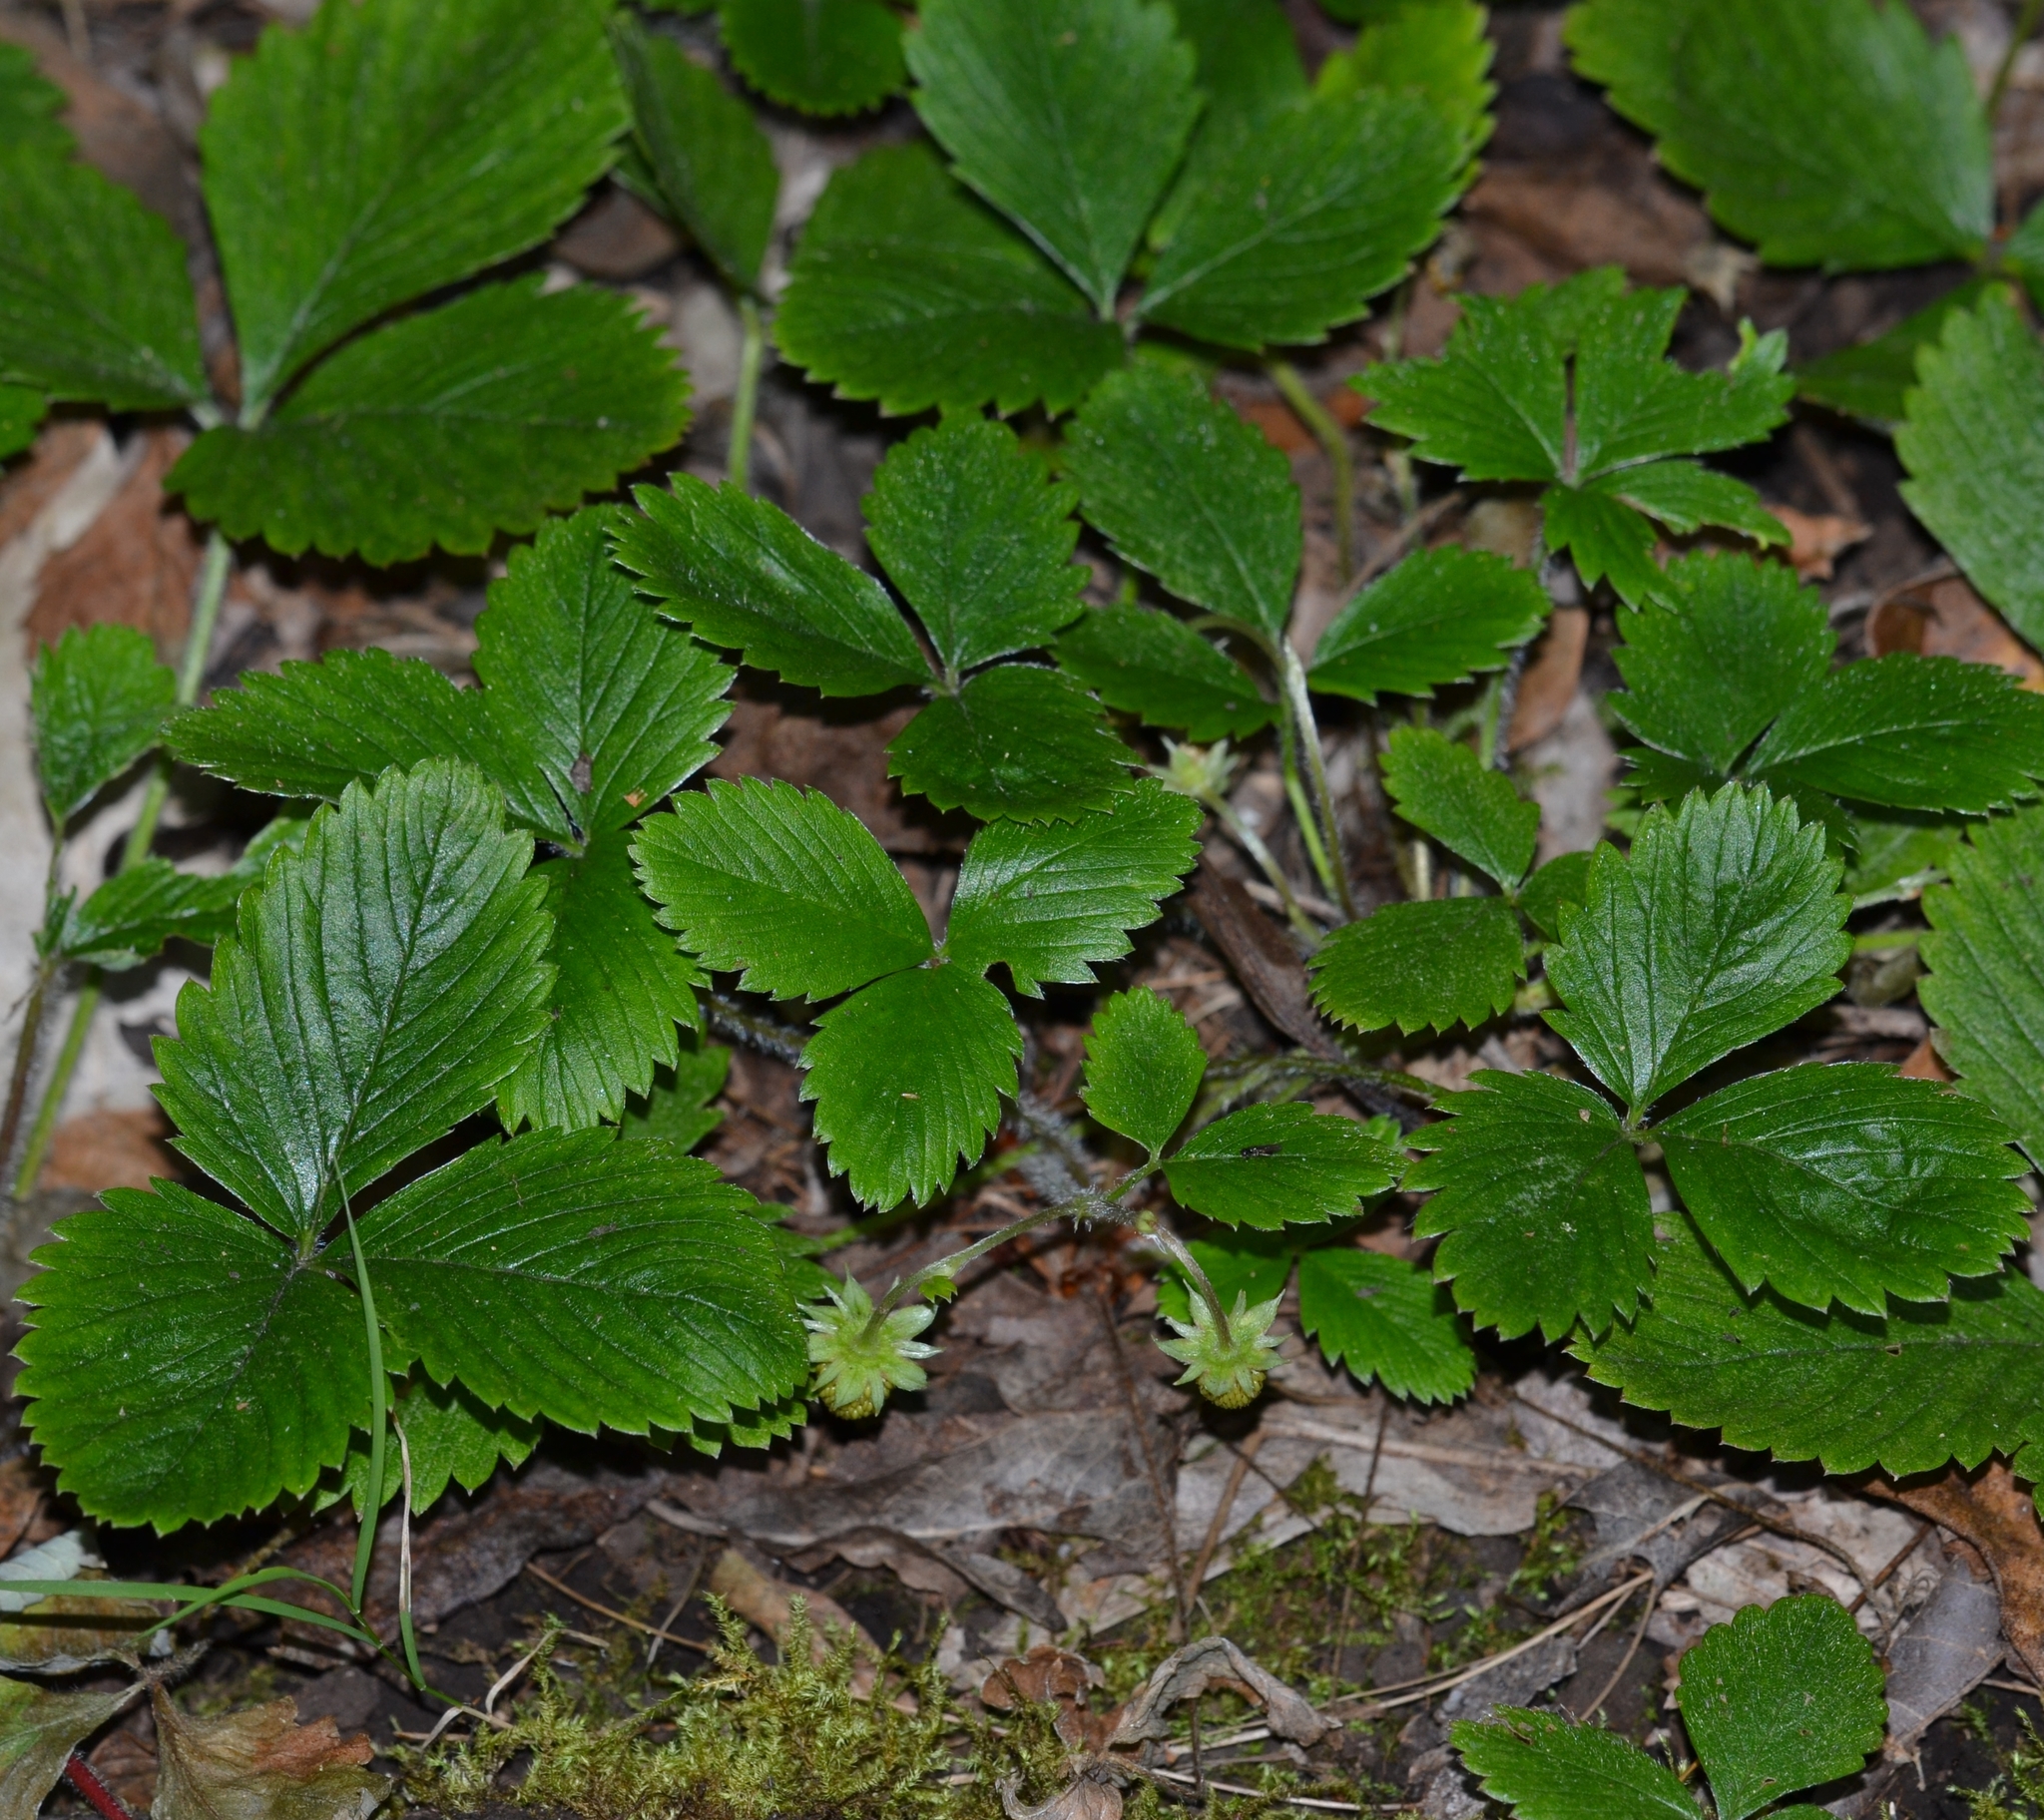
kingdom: Plantae
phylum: Tracheophyta
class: Magnoliopsida
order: Rosales
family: Rosaceae
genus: Fragaria
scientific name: Fragaria vesca
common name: Wild strawberry
